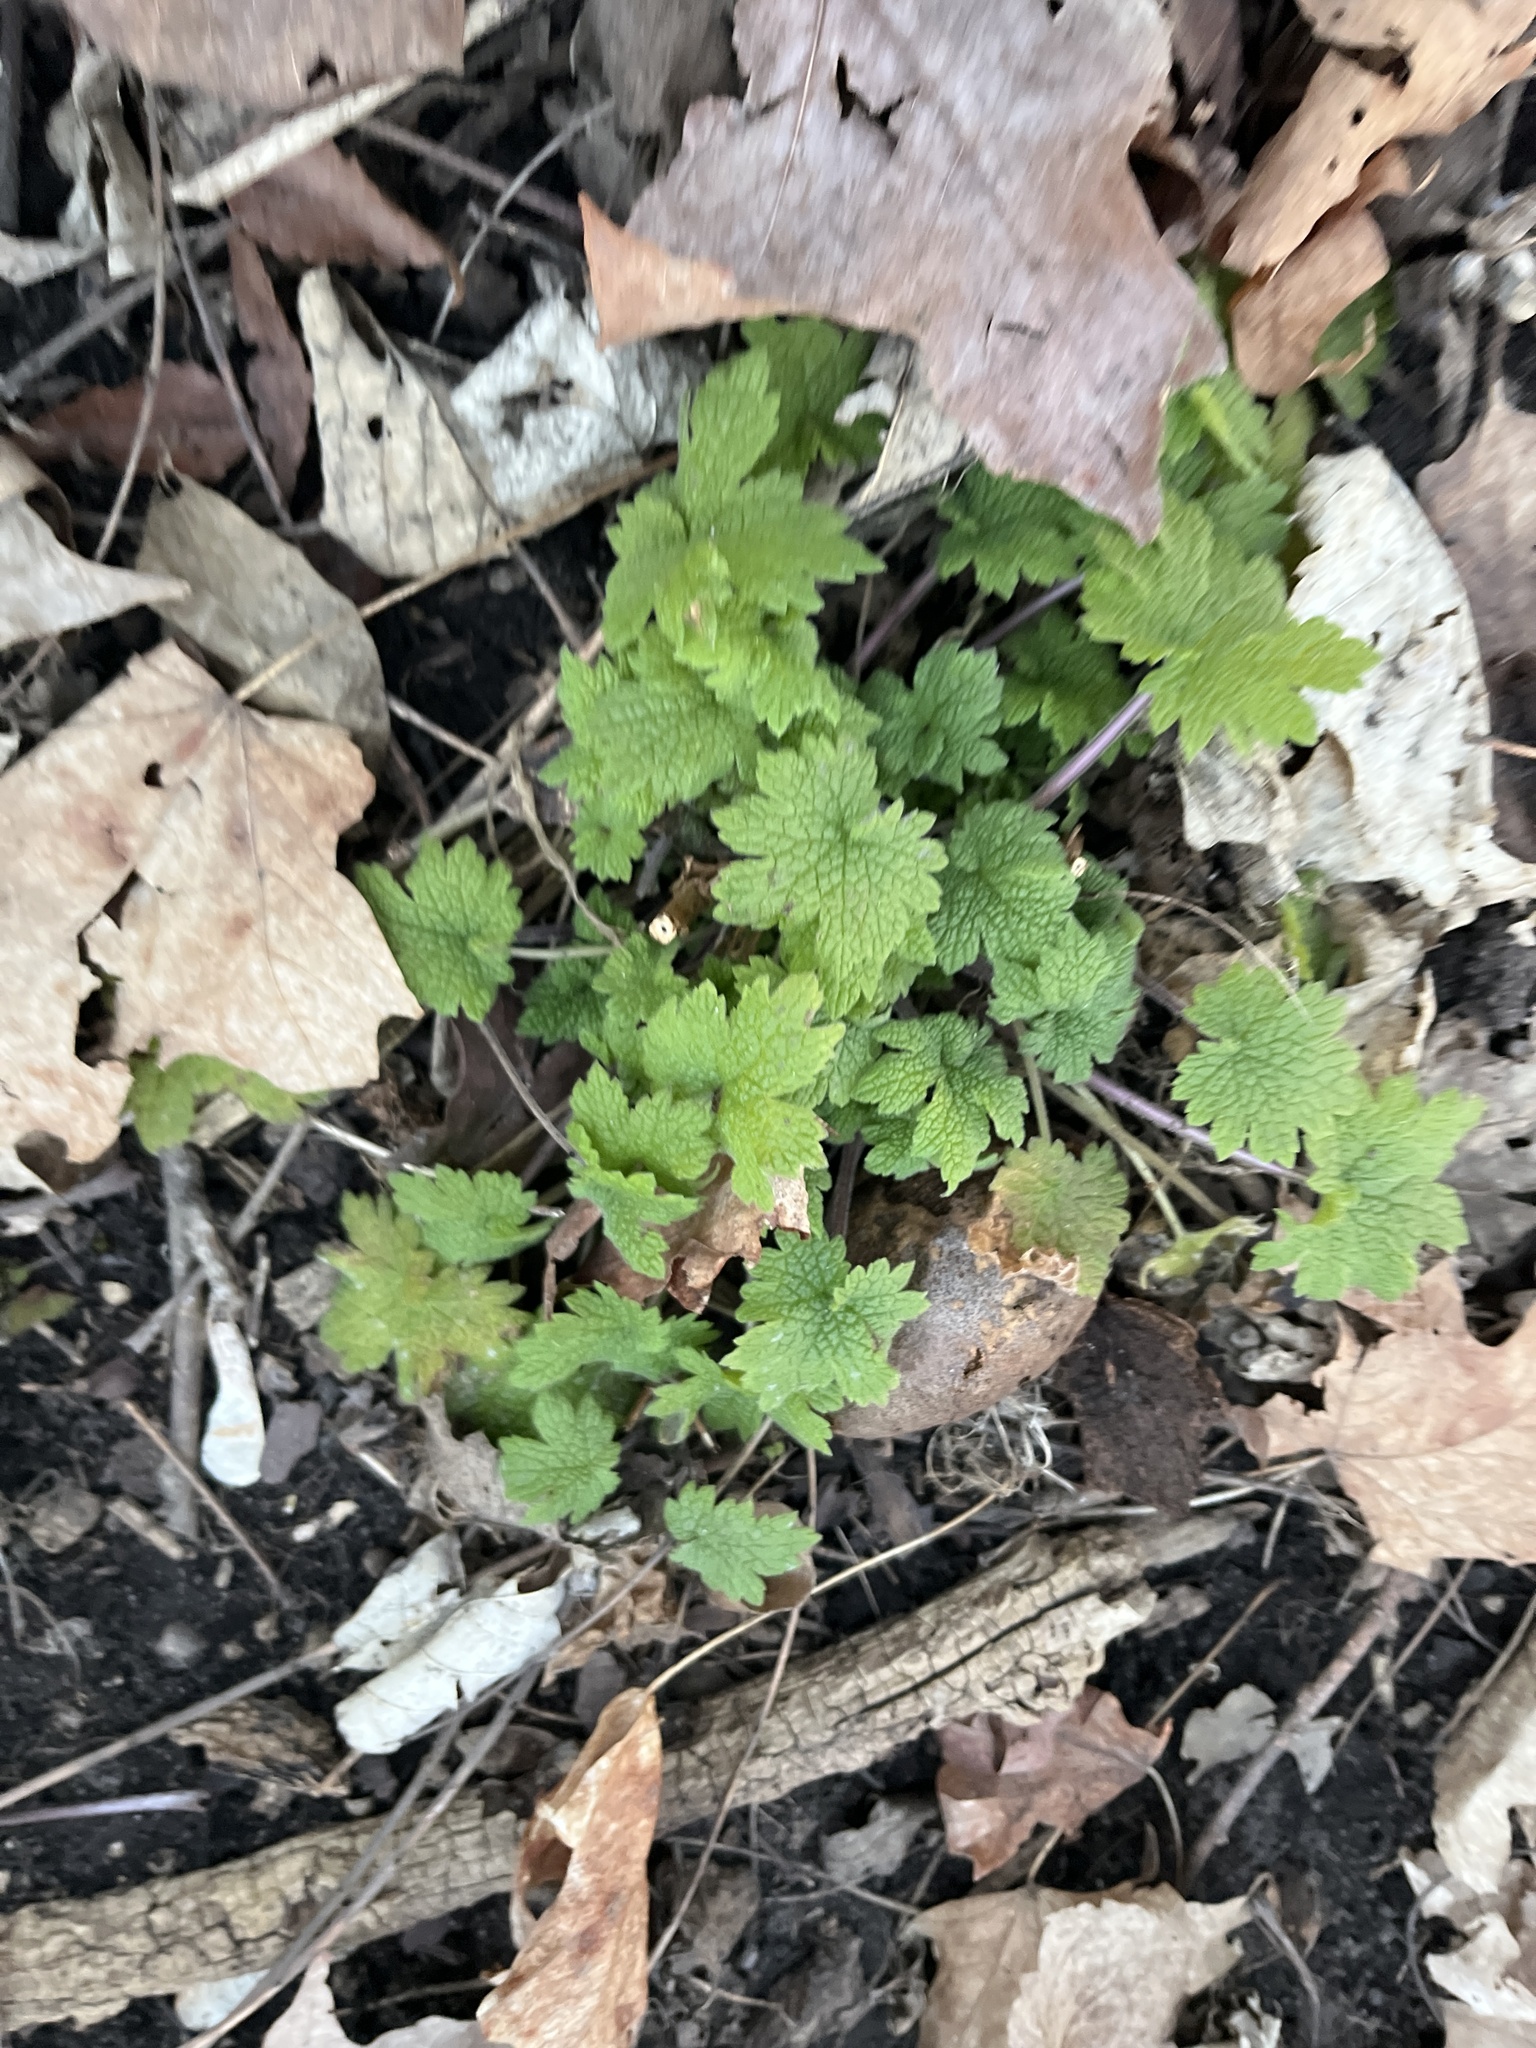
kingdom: Plantae
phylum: Tracheophyta
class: Magnoliopsida
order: Lamiales
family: Lamiaceae
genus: Leonurus
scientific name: Leonurus cardiaca
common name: Motherwort
